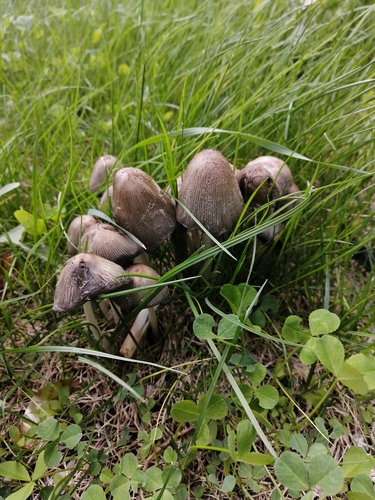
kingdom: Fungi
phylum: Basidiomycota
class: Agaricomycetes
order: Agaricales
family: Psathyrellaceae
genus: Coprinopsis
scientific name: Coprinopsis
